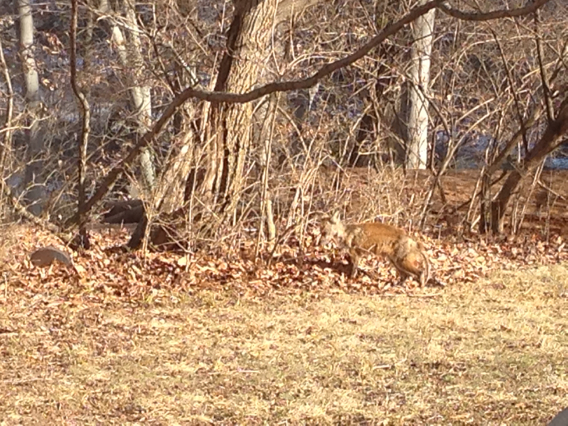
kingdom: Animalia
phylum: Chordata
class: Mammalia
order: Carnivora
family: Canidae
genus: Vulpes
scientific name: Vulpes vulpes
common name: Red fox
